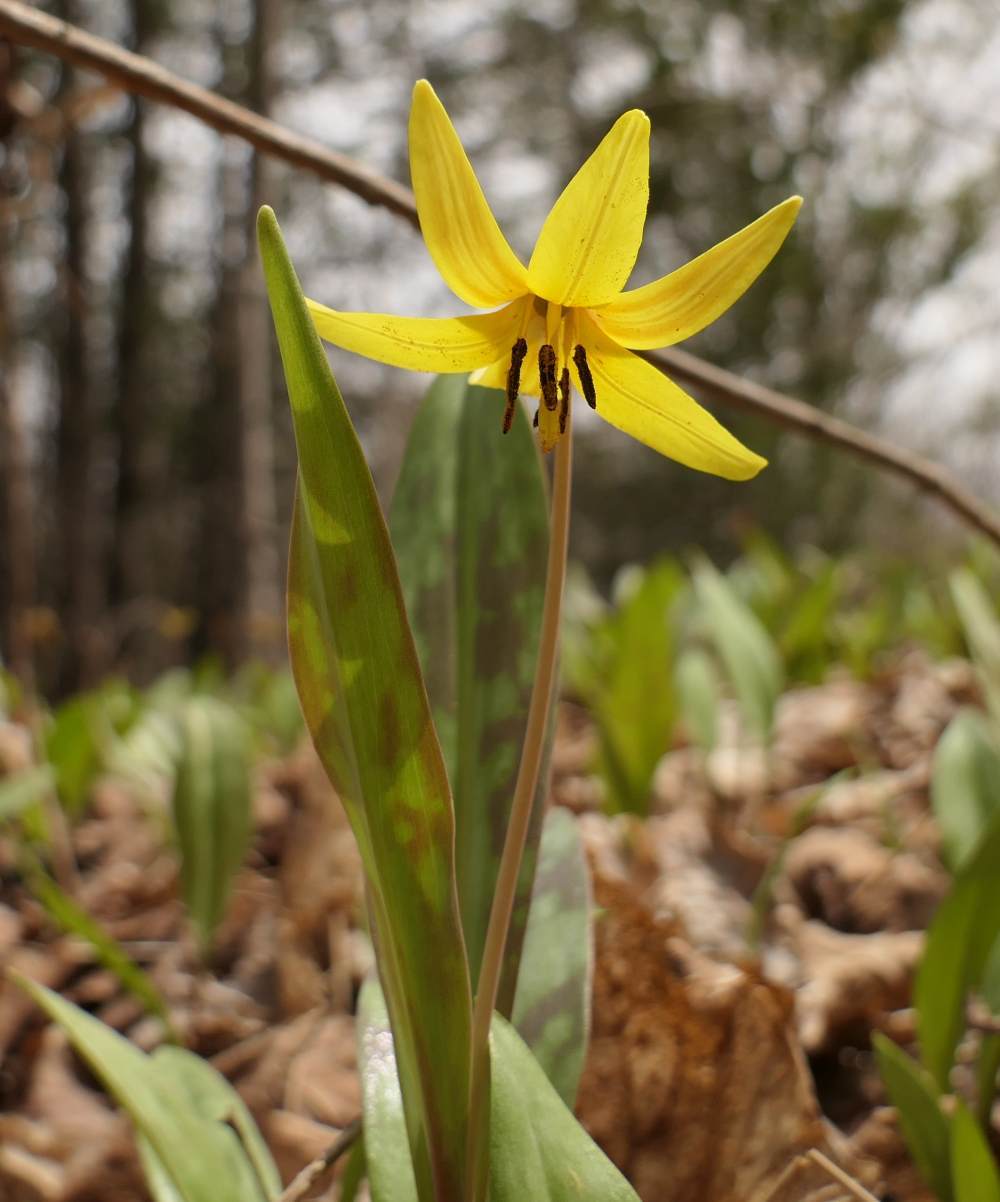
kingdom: Plantae
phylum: Tracheophyta
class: Liliopsida
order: Liliales
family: Liliaceae
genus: Erythronium
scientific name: Erythronium americanum
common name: Yellow adder's-tongue
